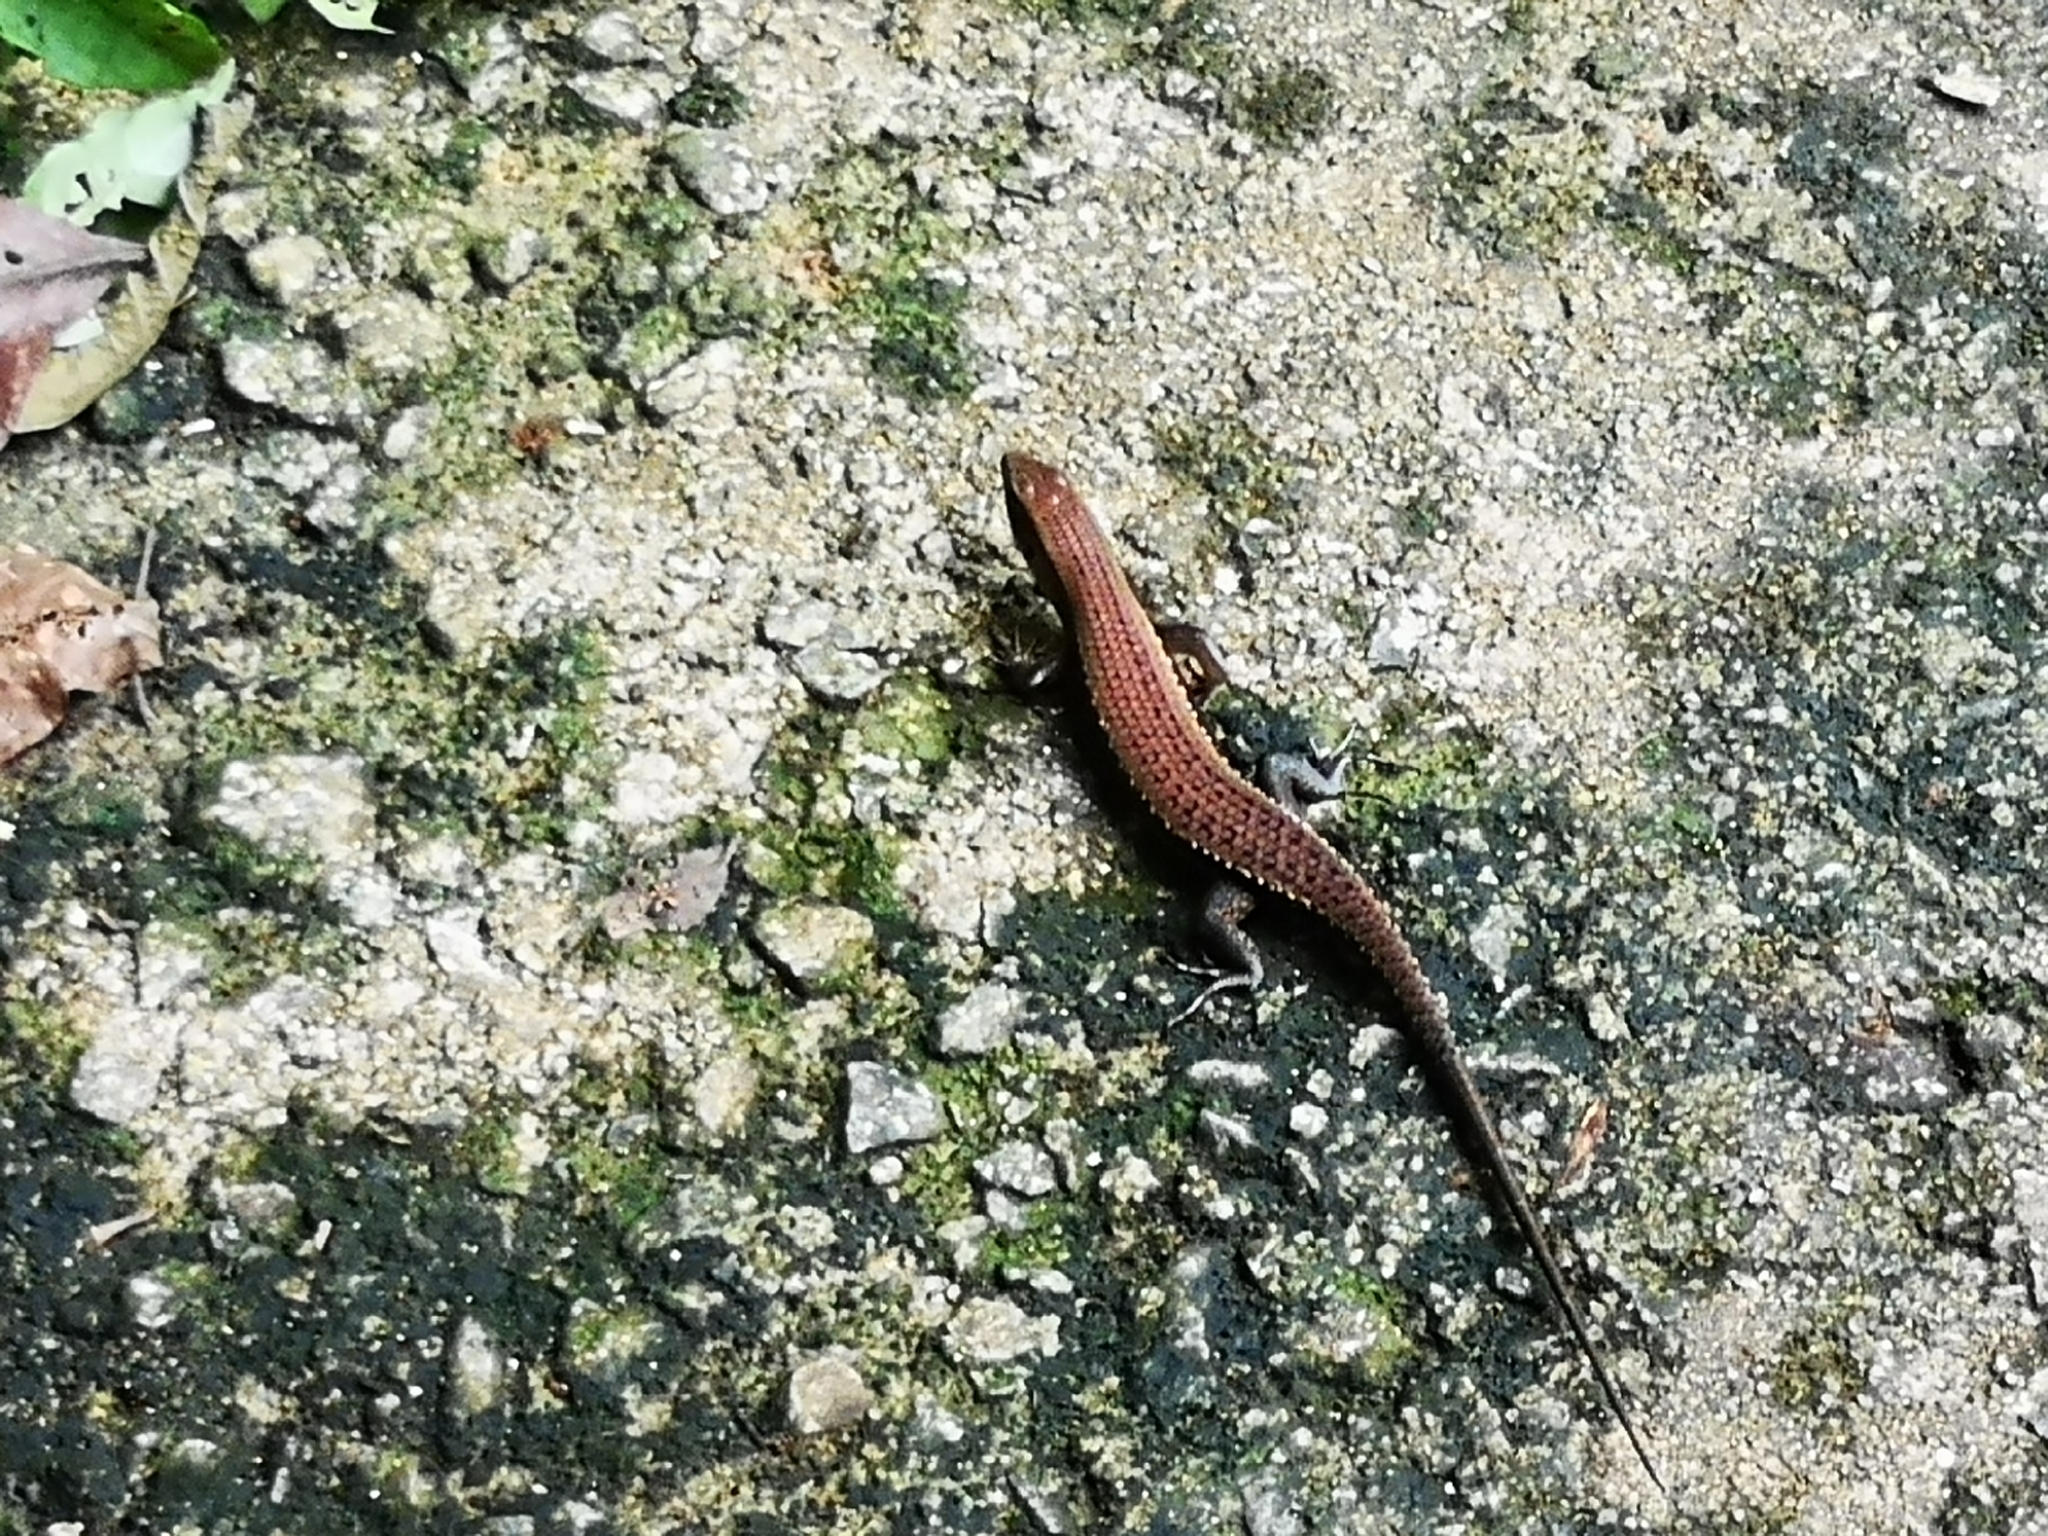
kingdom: Animalia
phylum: Chordata
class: Squamata
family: Scincidae
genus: Eutropis
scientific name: Eutropis multifasciata
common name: Common mabuya
